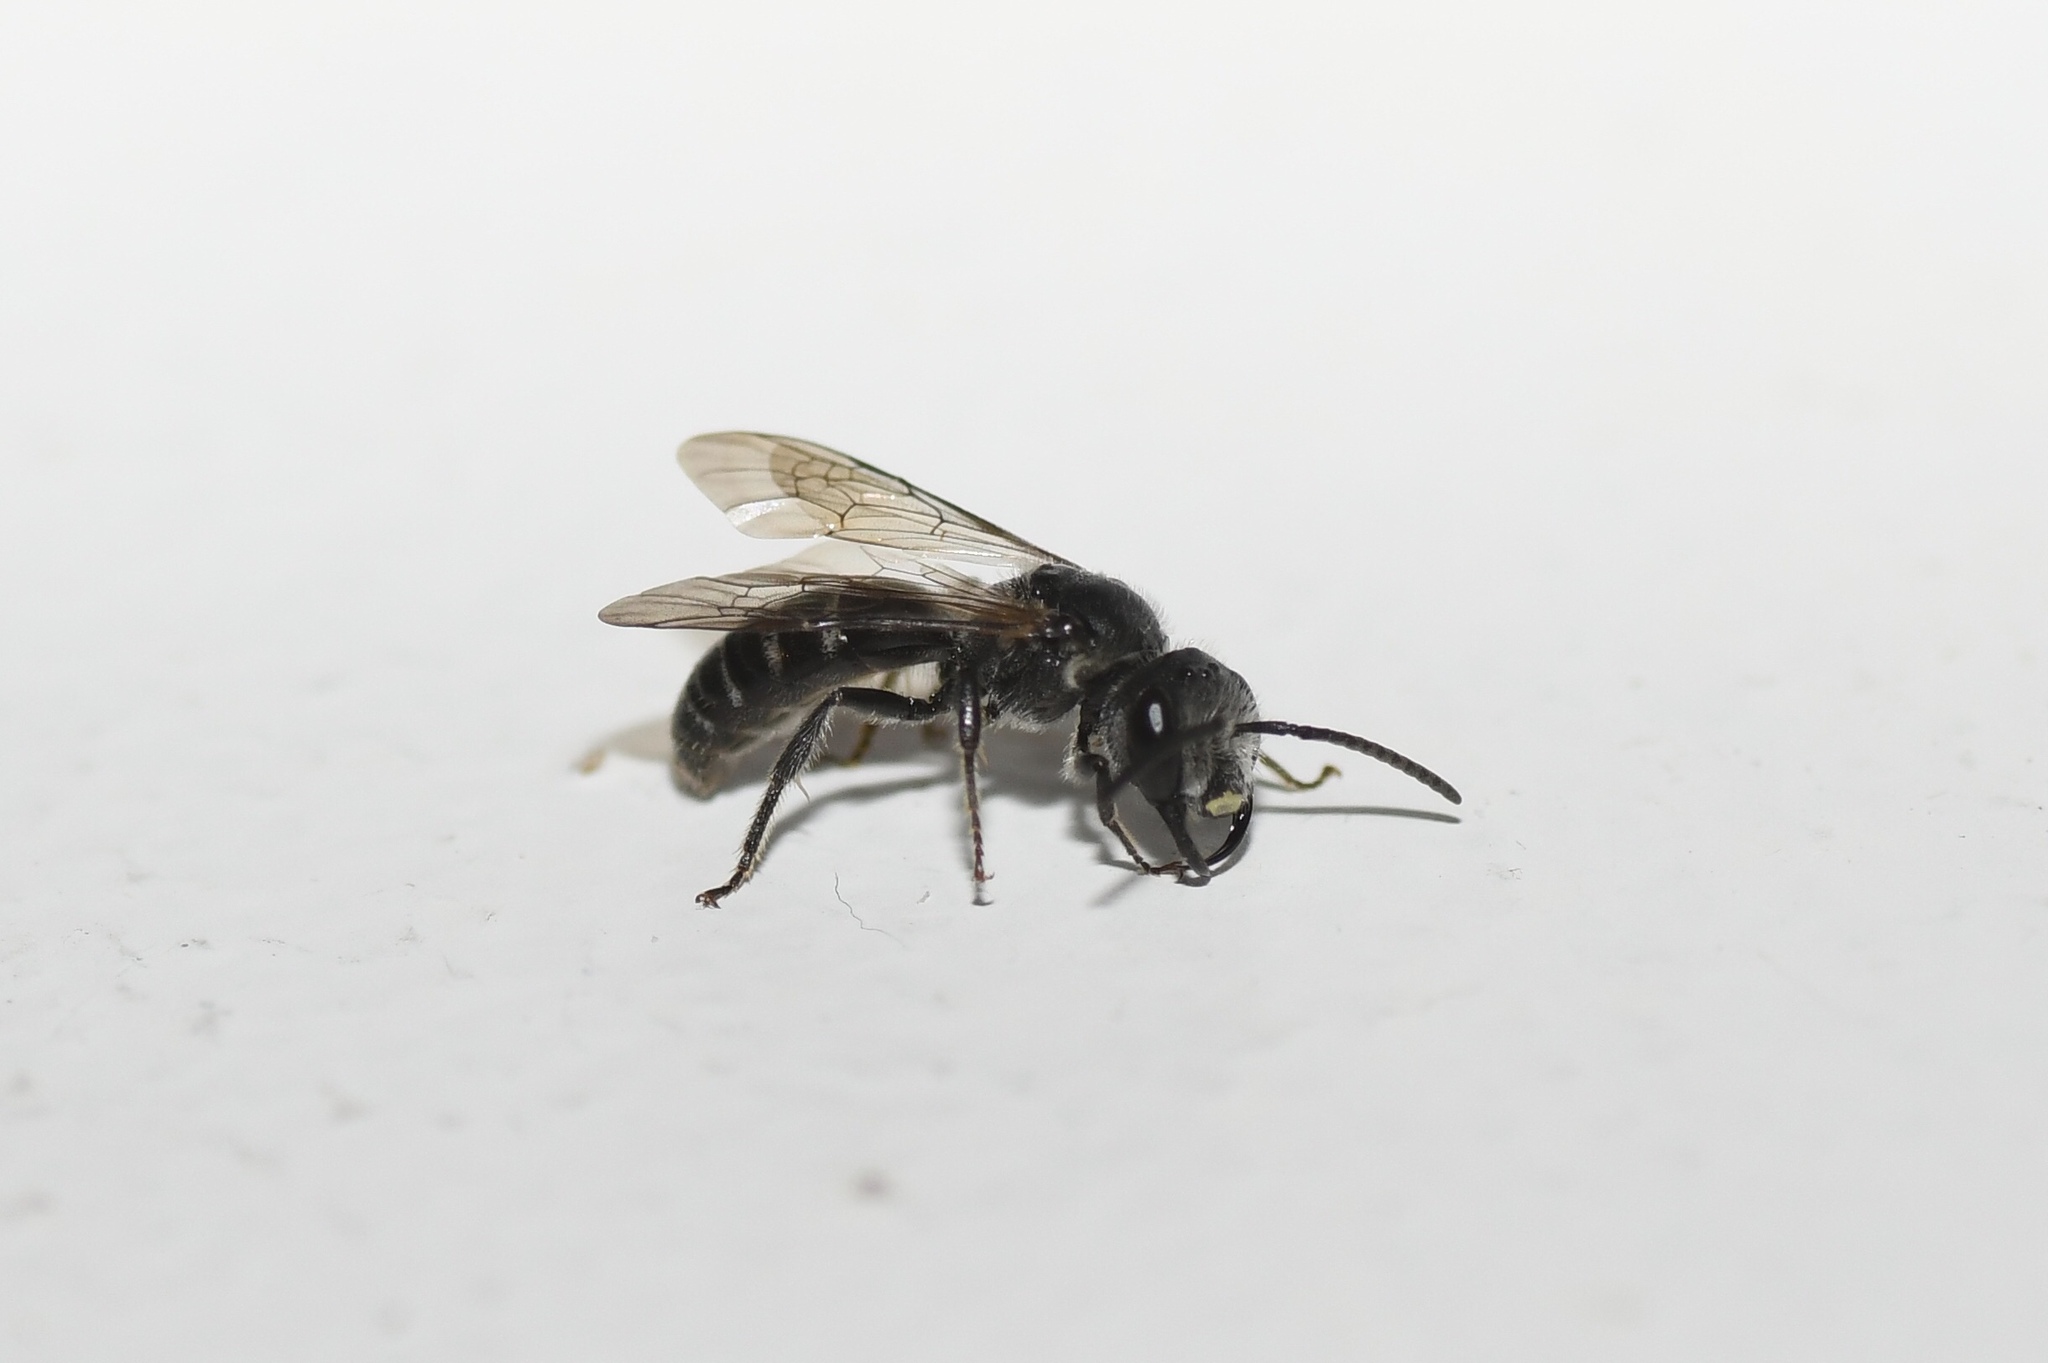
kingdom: Animalia
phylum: Arthropoda
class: Insecta
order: Hymenoptera
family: Halictidae
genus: Lasioglossum
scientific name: Lasioglossum coriaceum
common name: Leathery sweat bee
